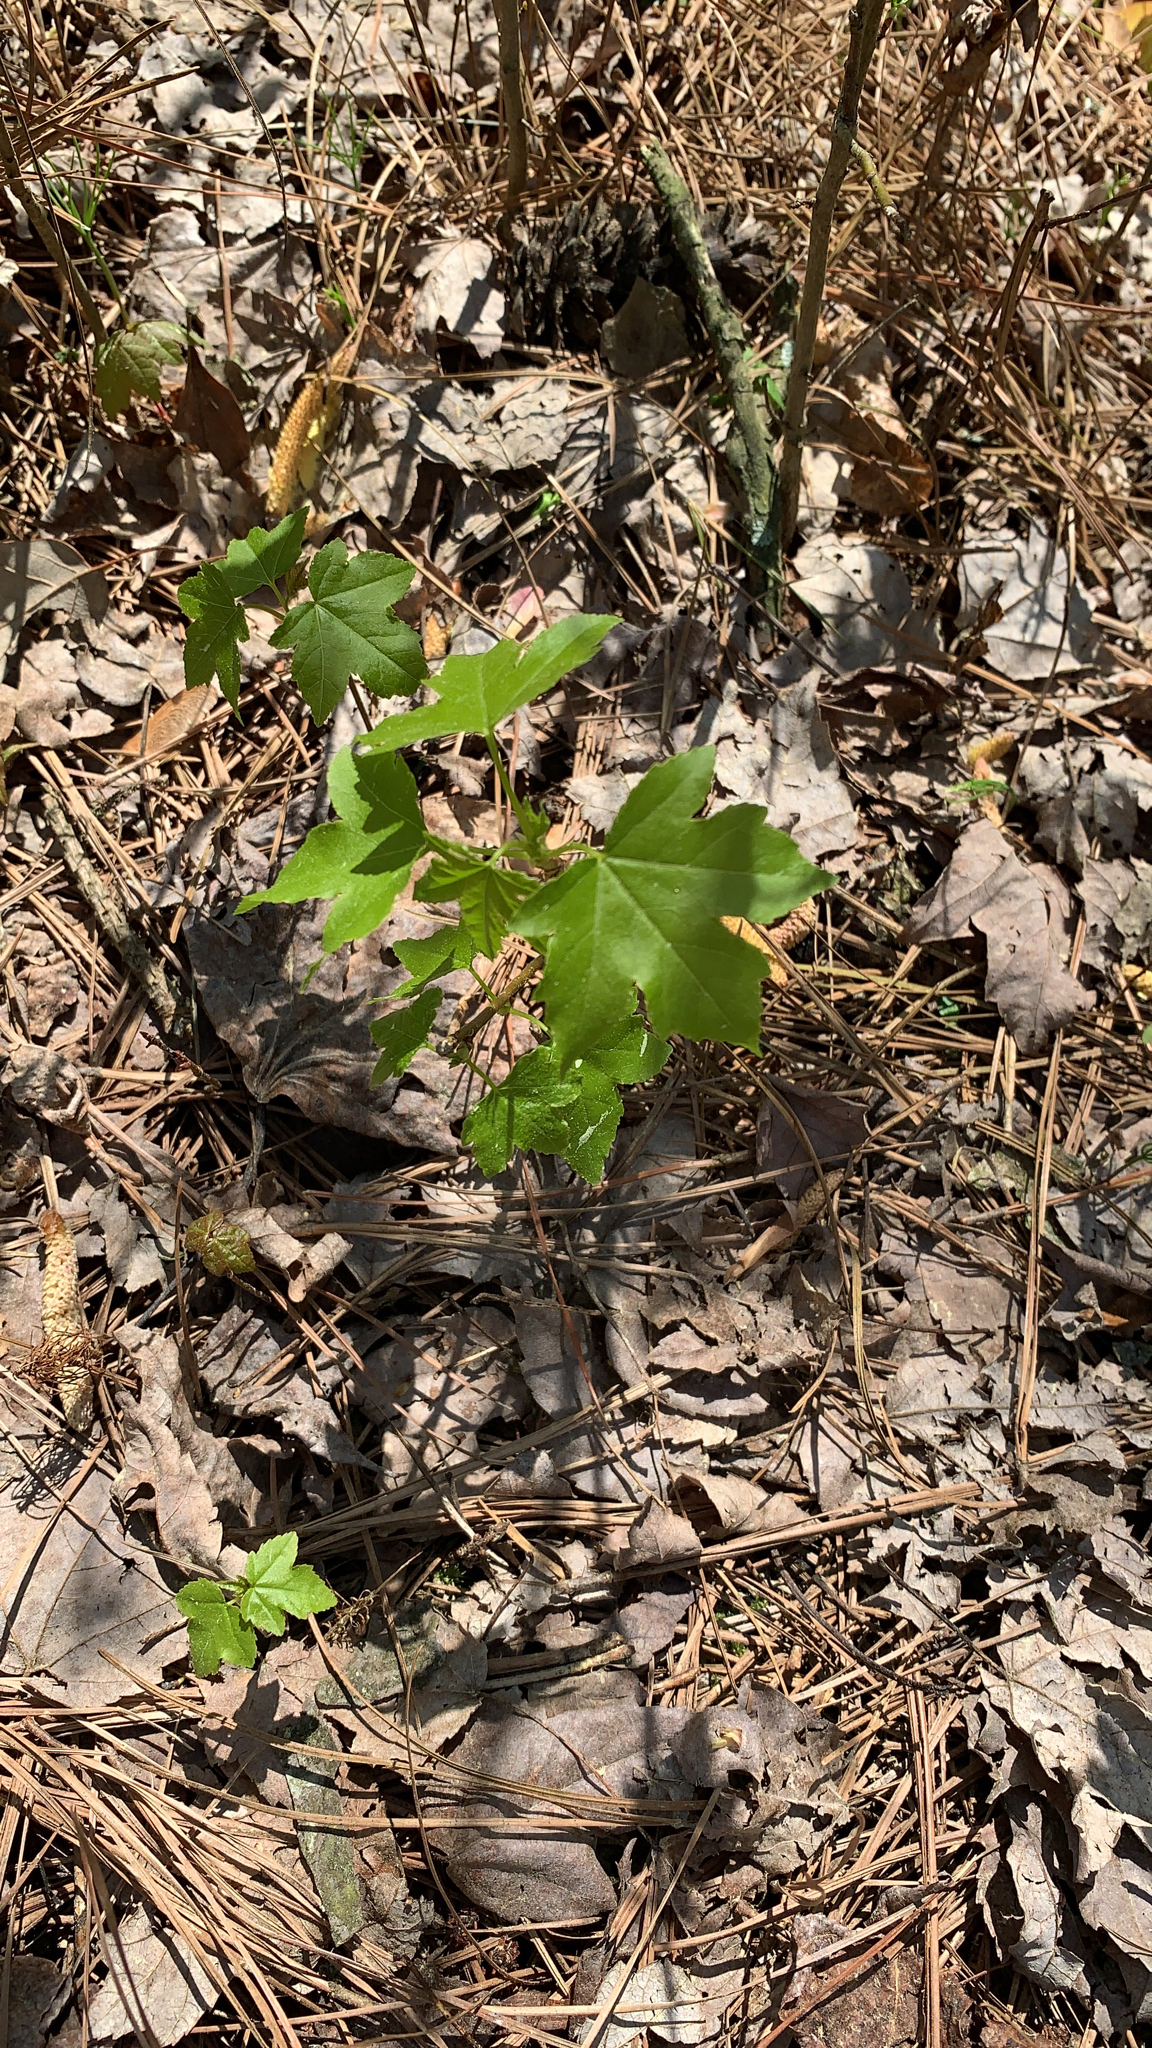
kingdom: Plantae
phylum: Tracheophyta
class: Magnoliopsida
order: Saxifragales
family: Altingiaceae
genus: Liquidambar
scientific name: Liquidambar styraciflua
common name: Sweet gum
